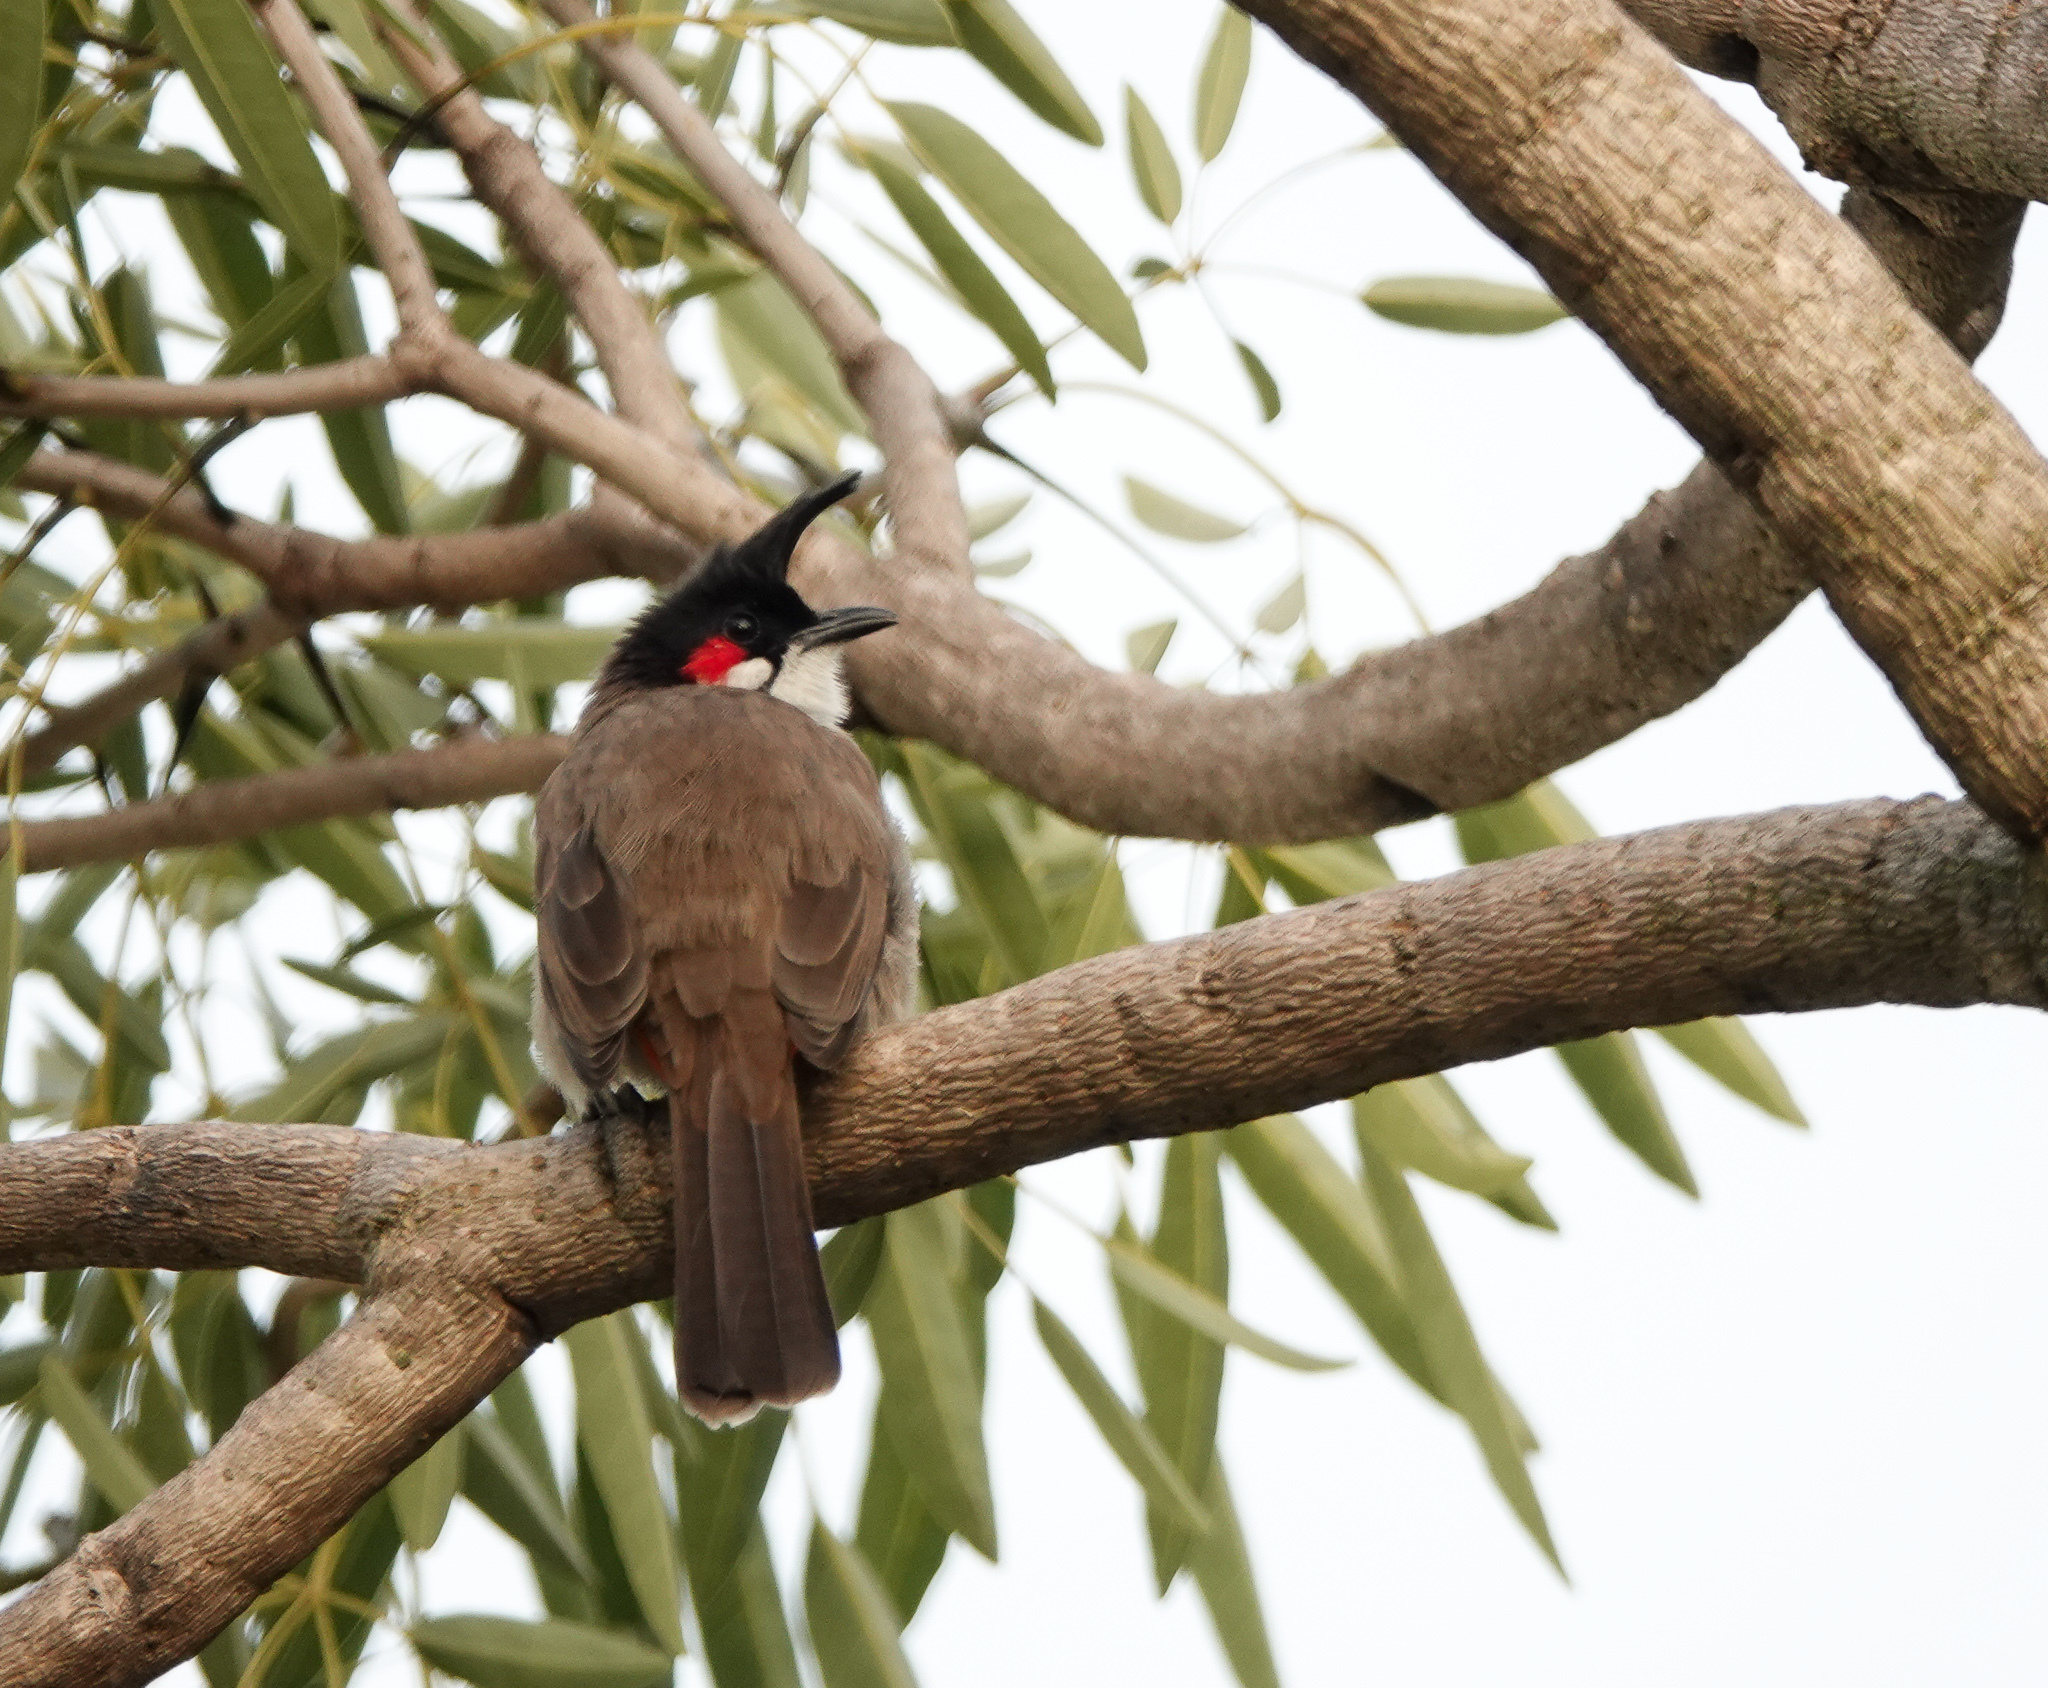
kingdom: Animalia
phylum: Chordata
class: Aves
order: Passeriformes
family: Pycnonotidae
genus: Pycnonotus
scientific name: Pycnonotus jocosus
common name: Red-whiskered bulbul
